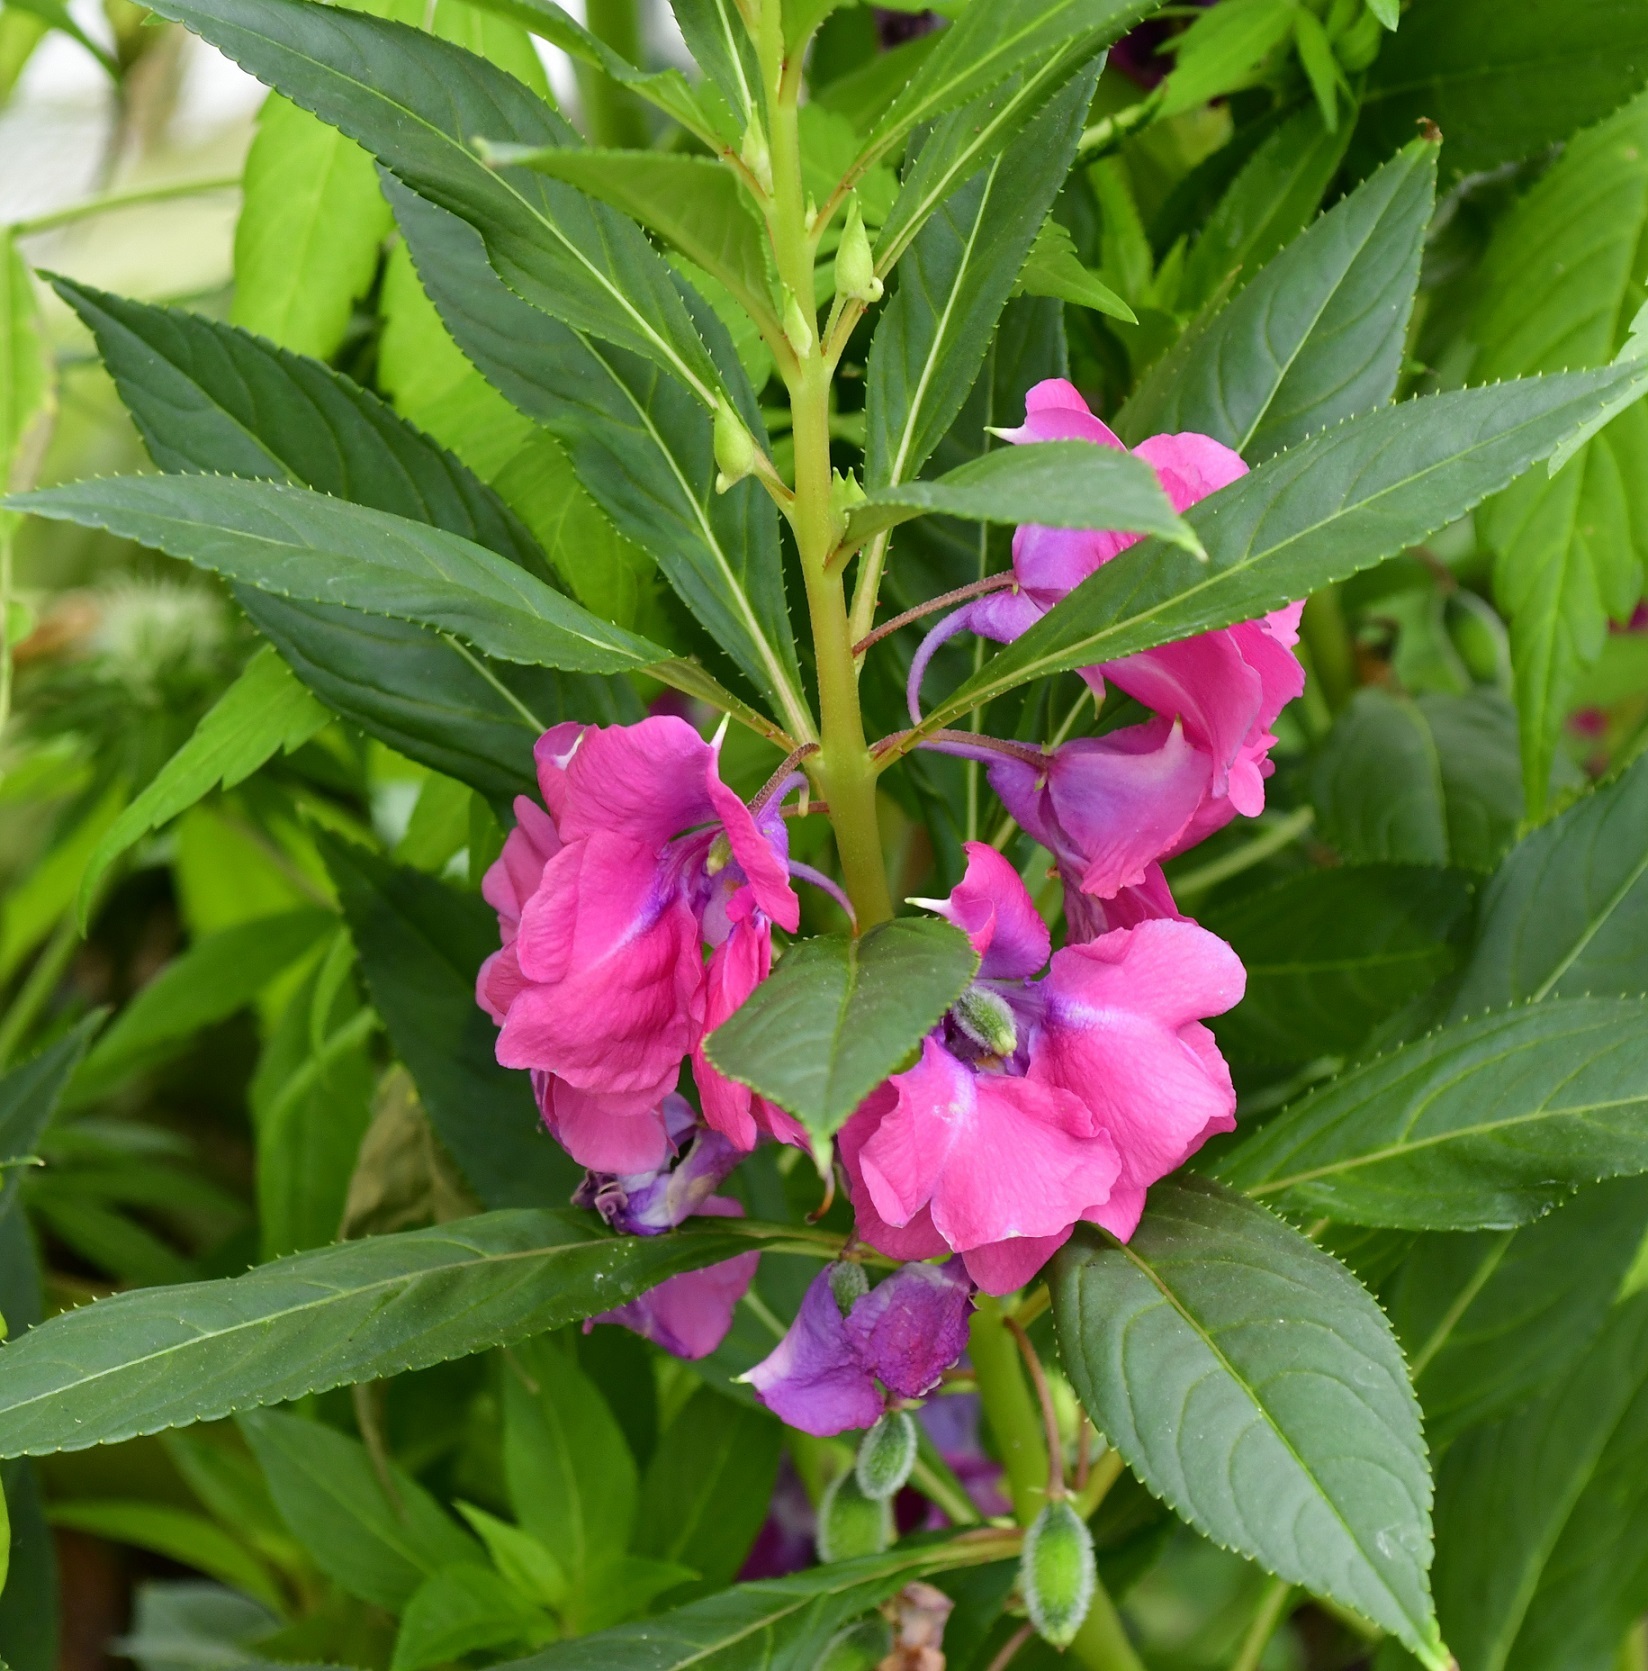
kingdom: Plantae
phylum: Tracheophyta
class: Magnoliopsida
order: Ericales
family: Balsaminaceae
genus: Impatiens
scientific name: Impatiens balsamina
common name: Balsam
